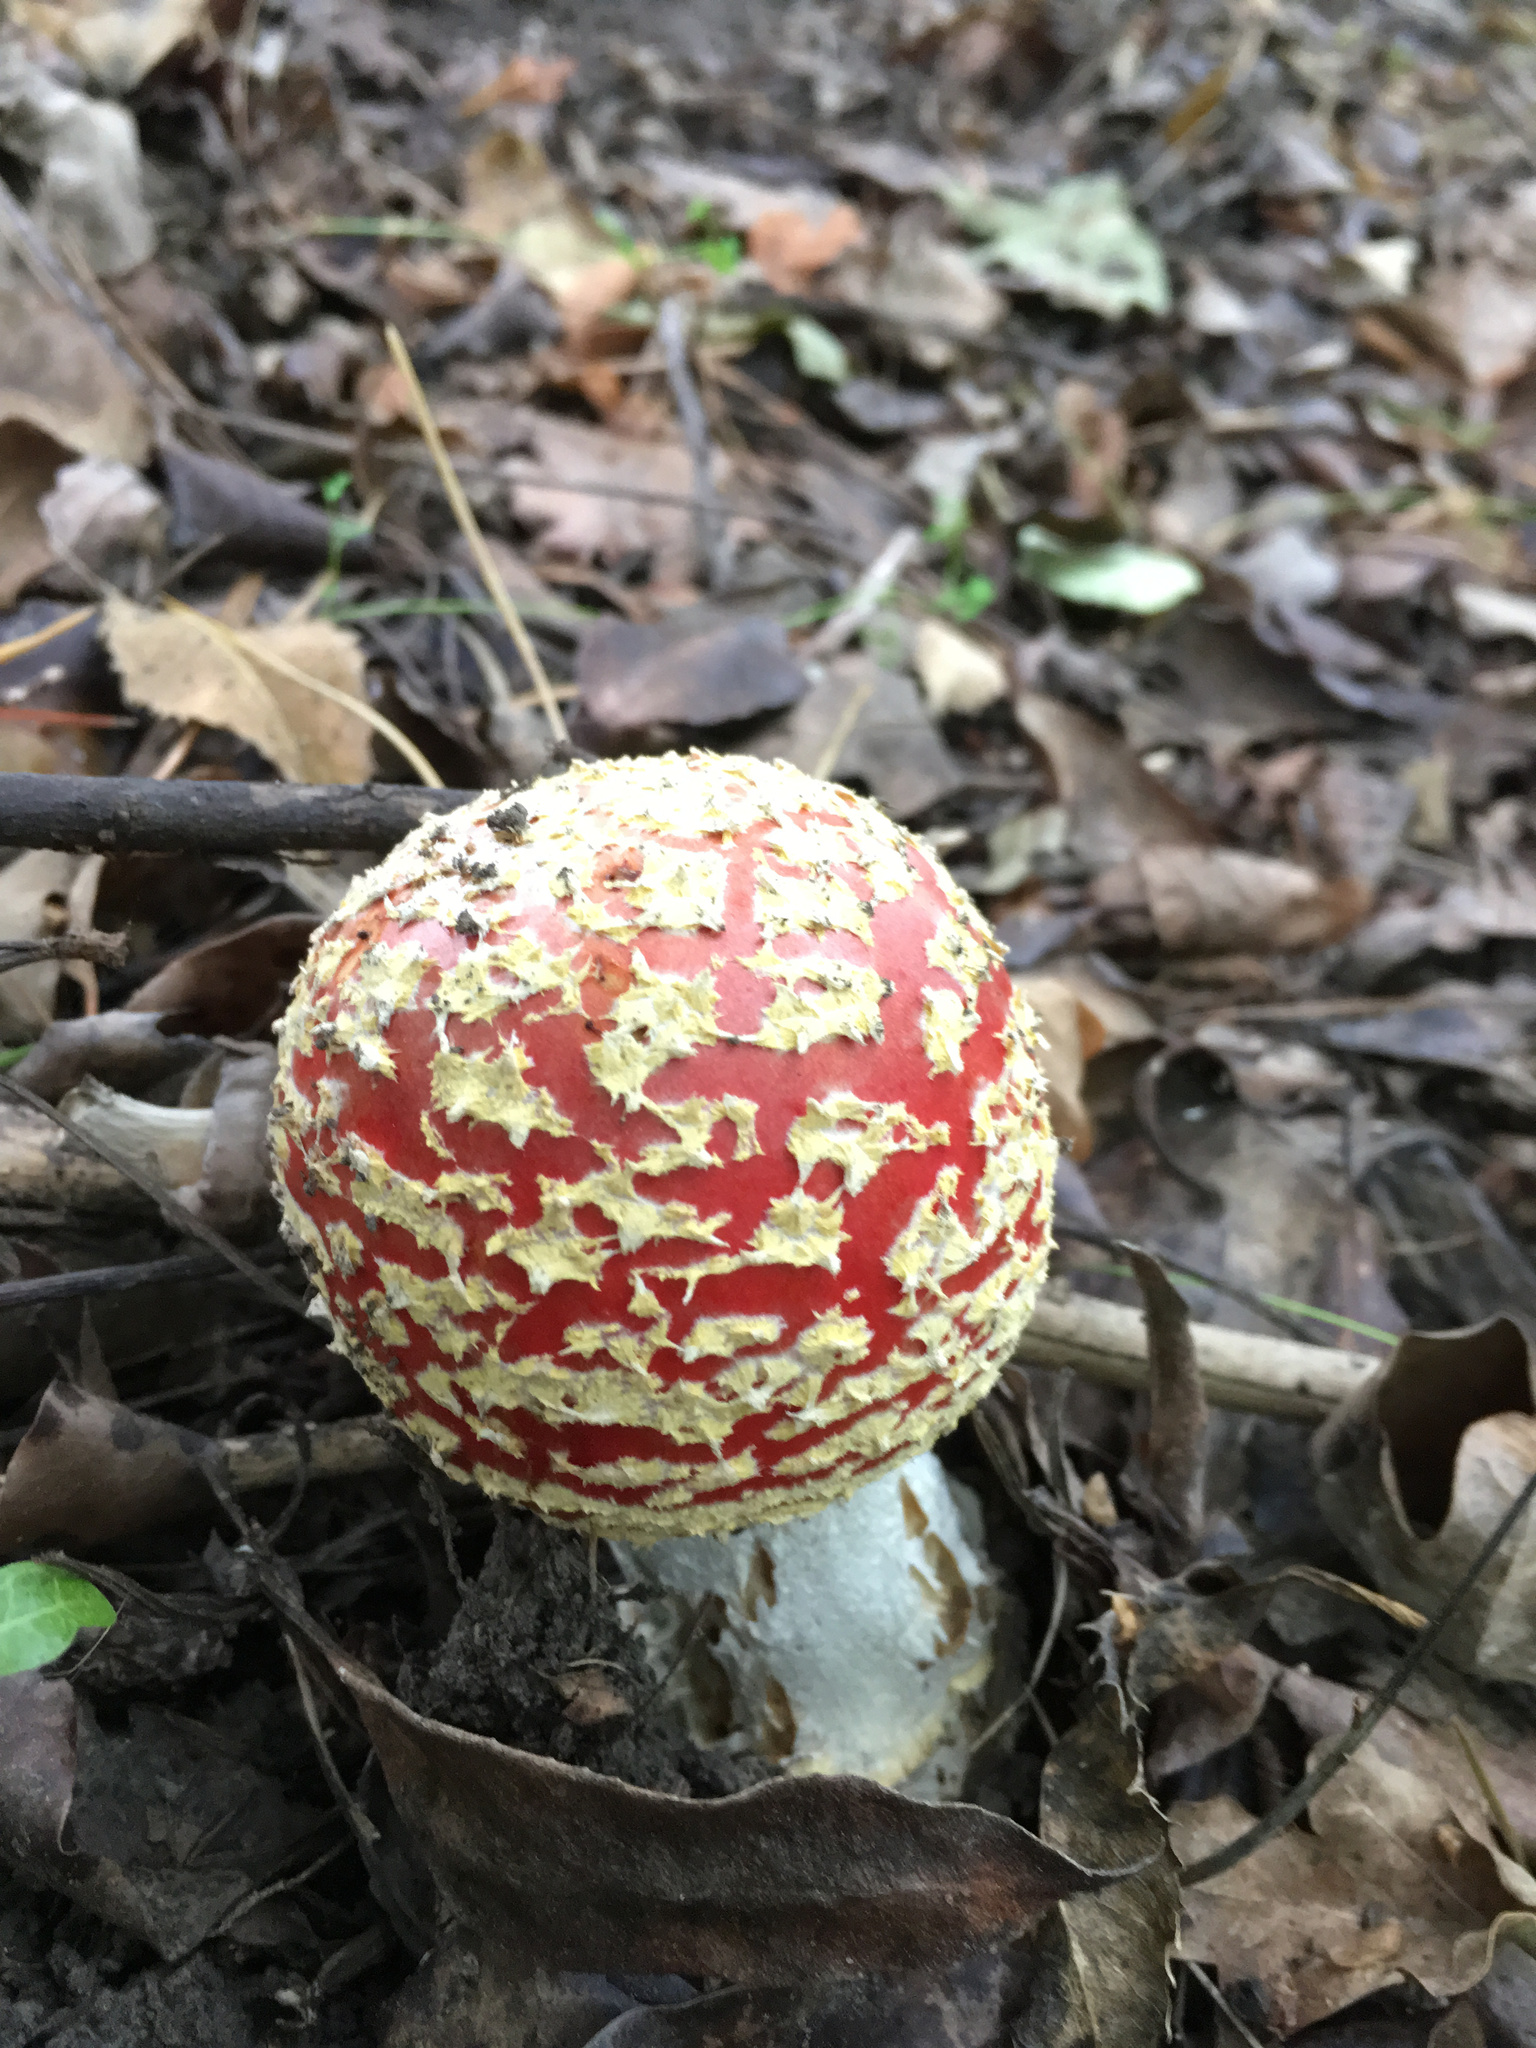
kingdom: Fungi
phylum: Basidiomycota
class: Agaricomycetes
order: Agaricales
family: Amanitaceae
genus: Amanita
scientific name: Amanita muscaria
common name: Fly agaric
